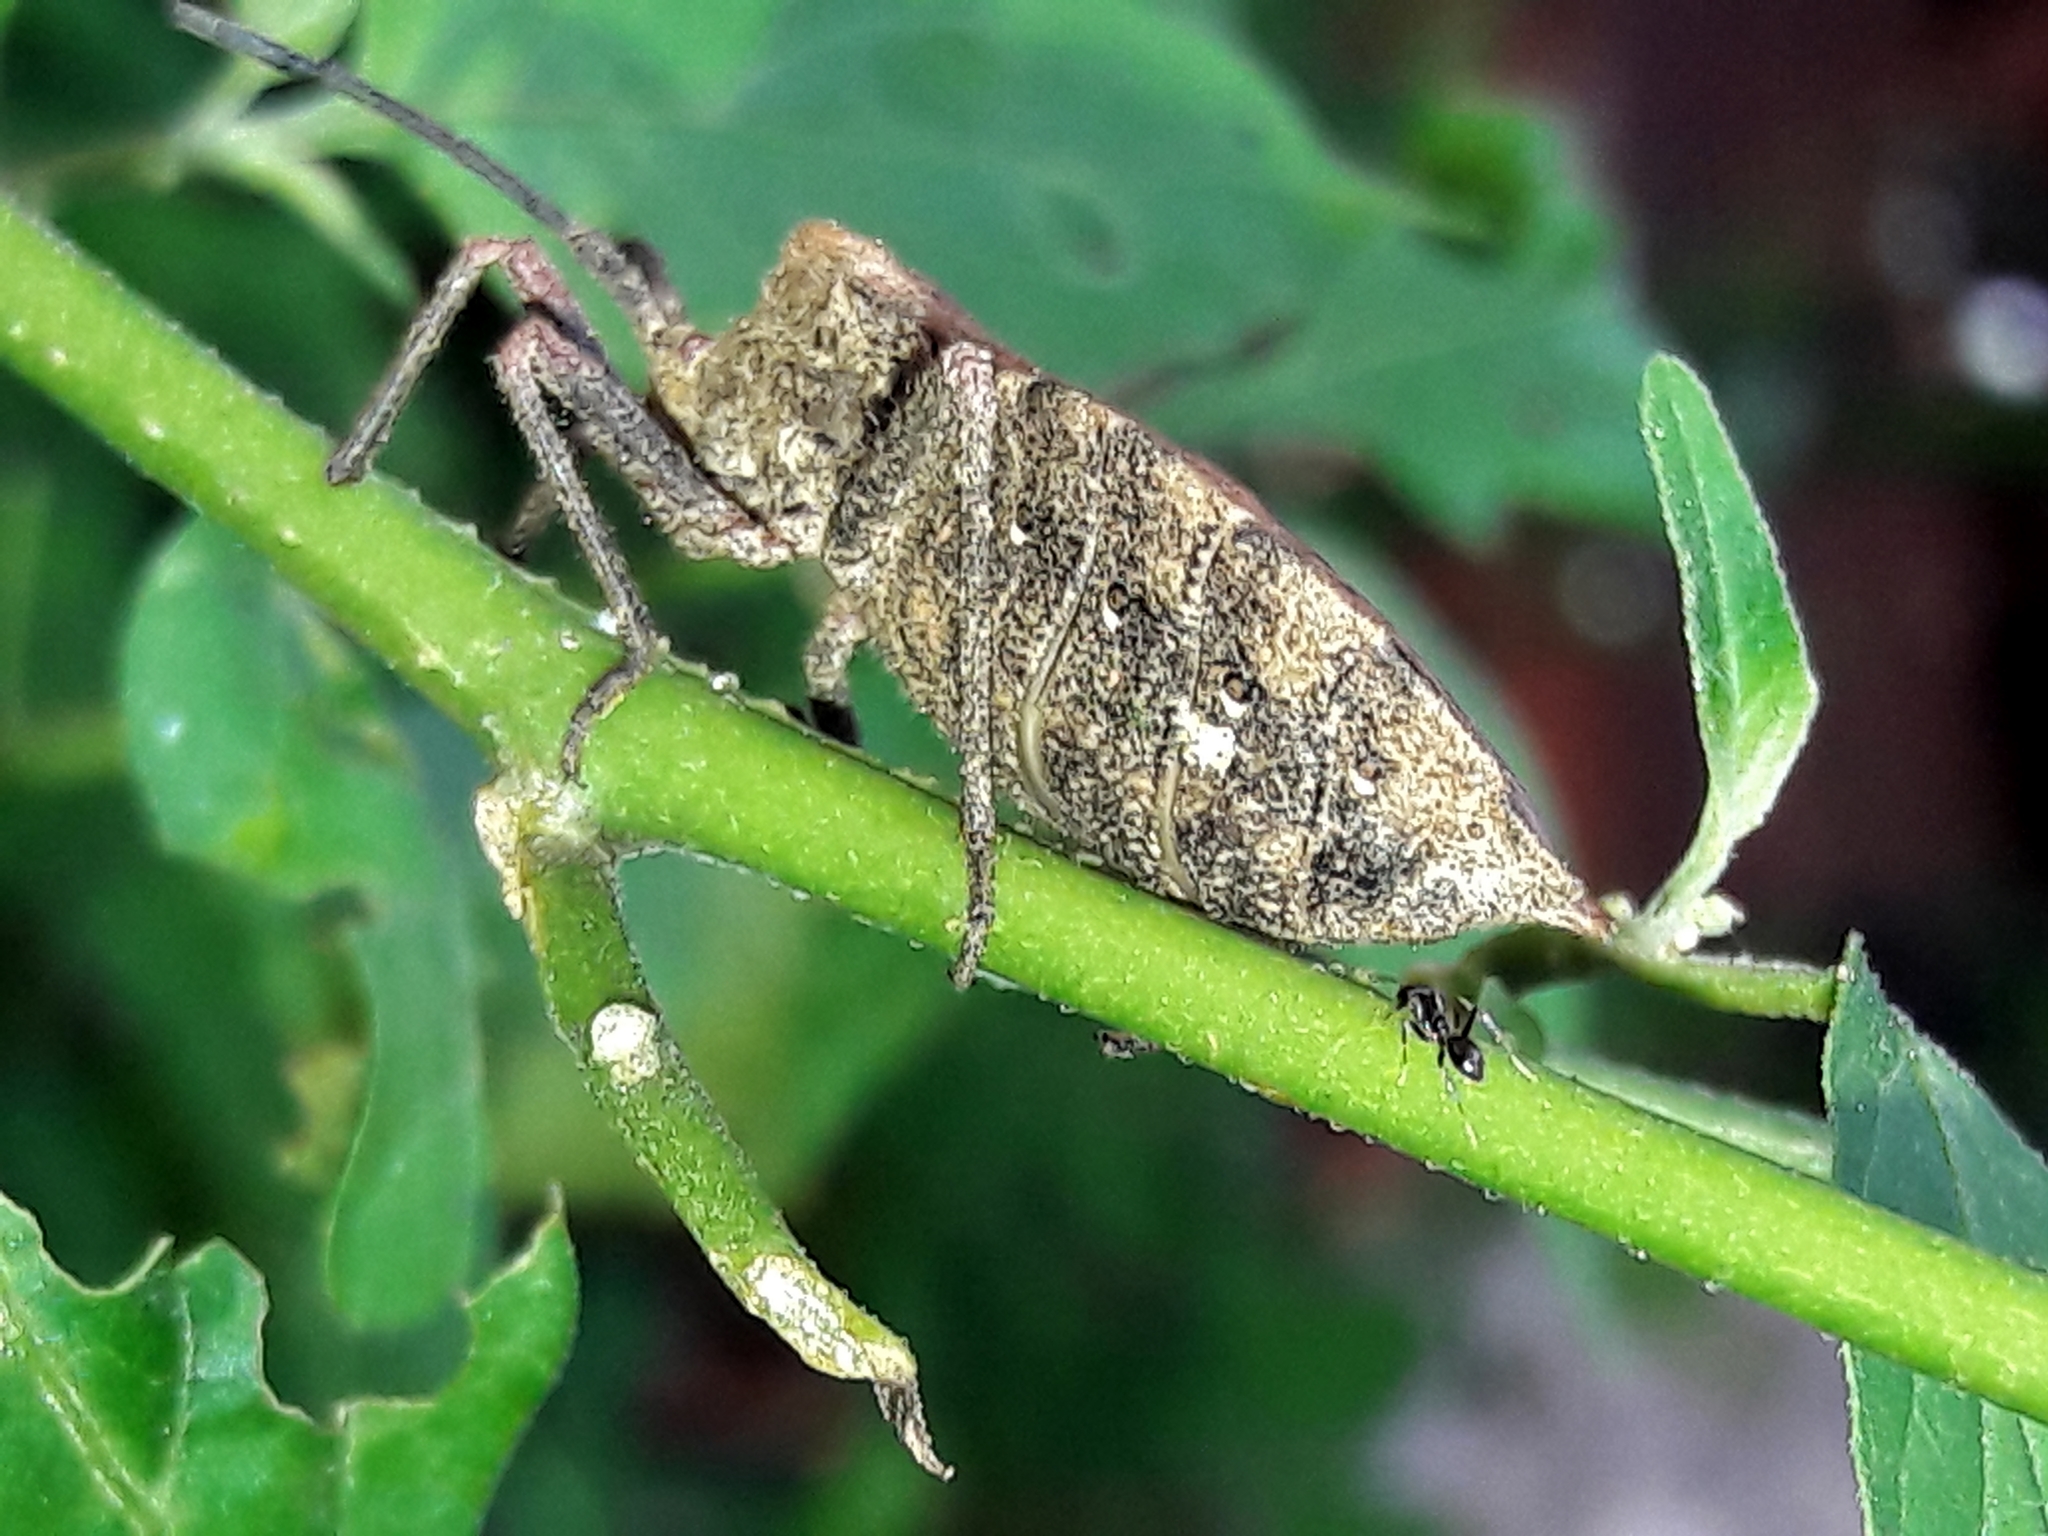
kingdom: Animalia
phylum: Arthropoda
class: Insecta
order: Hemiptera
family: Coreidae
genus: Spartocera
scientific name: Spartocera fusca
